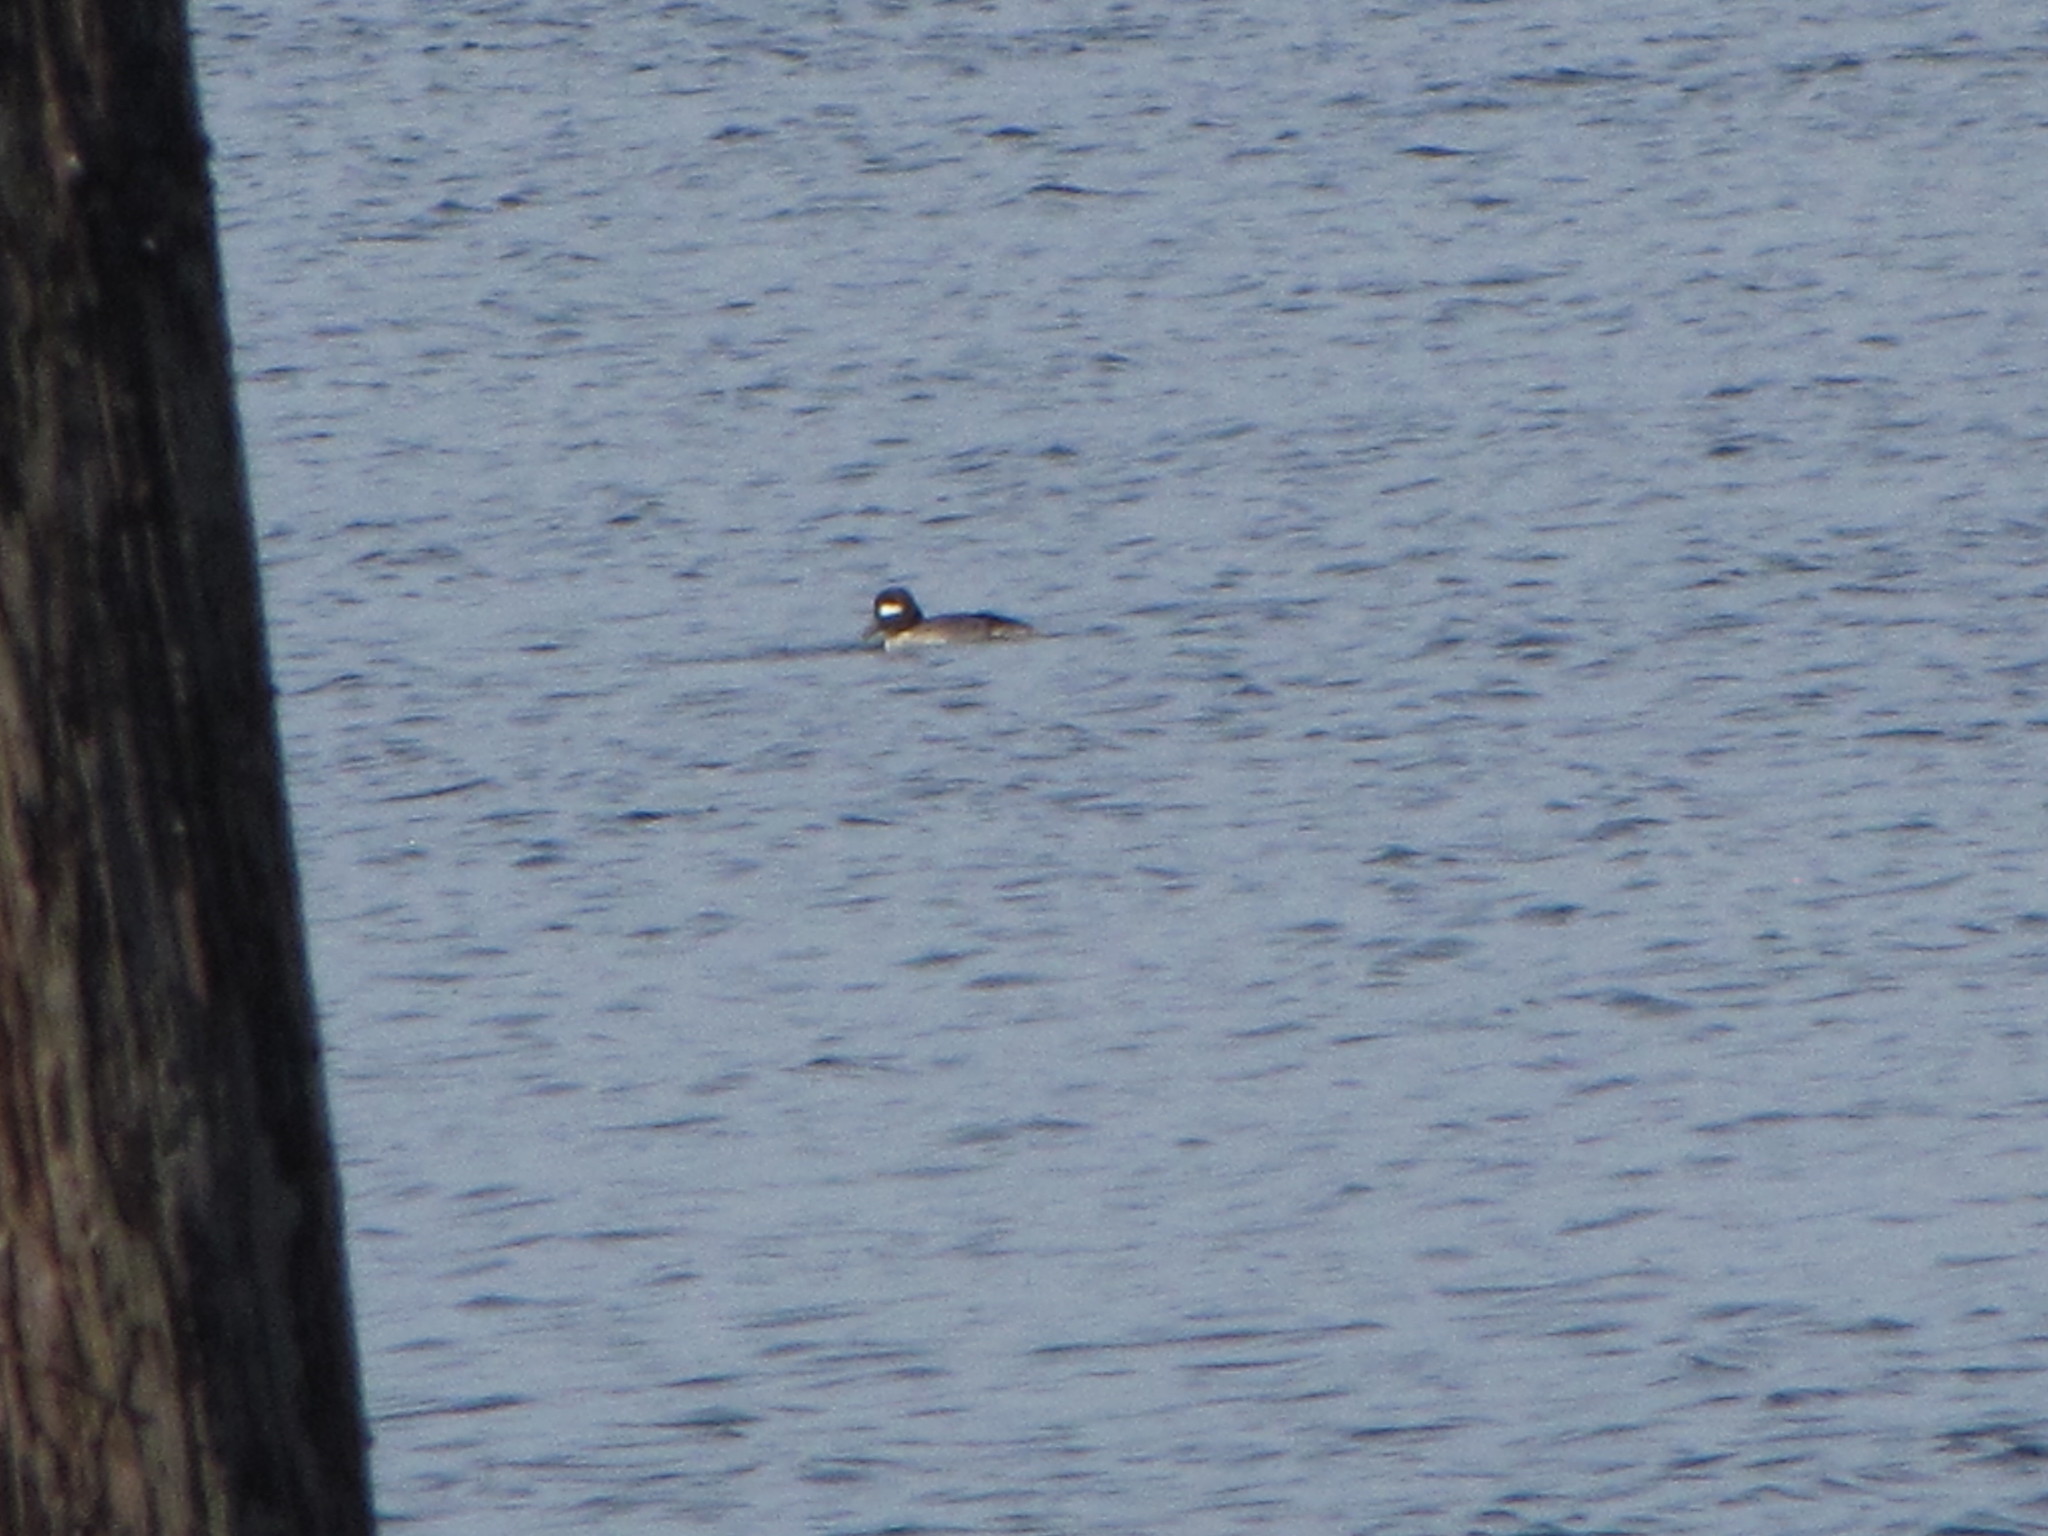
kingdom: Animalia
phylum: Chordata
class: Aves
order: Anseriformes
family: Anatidae
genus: Bucephala
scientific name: Bucephala albeola
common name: Bufflehead
